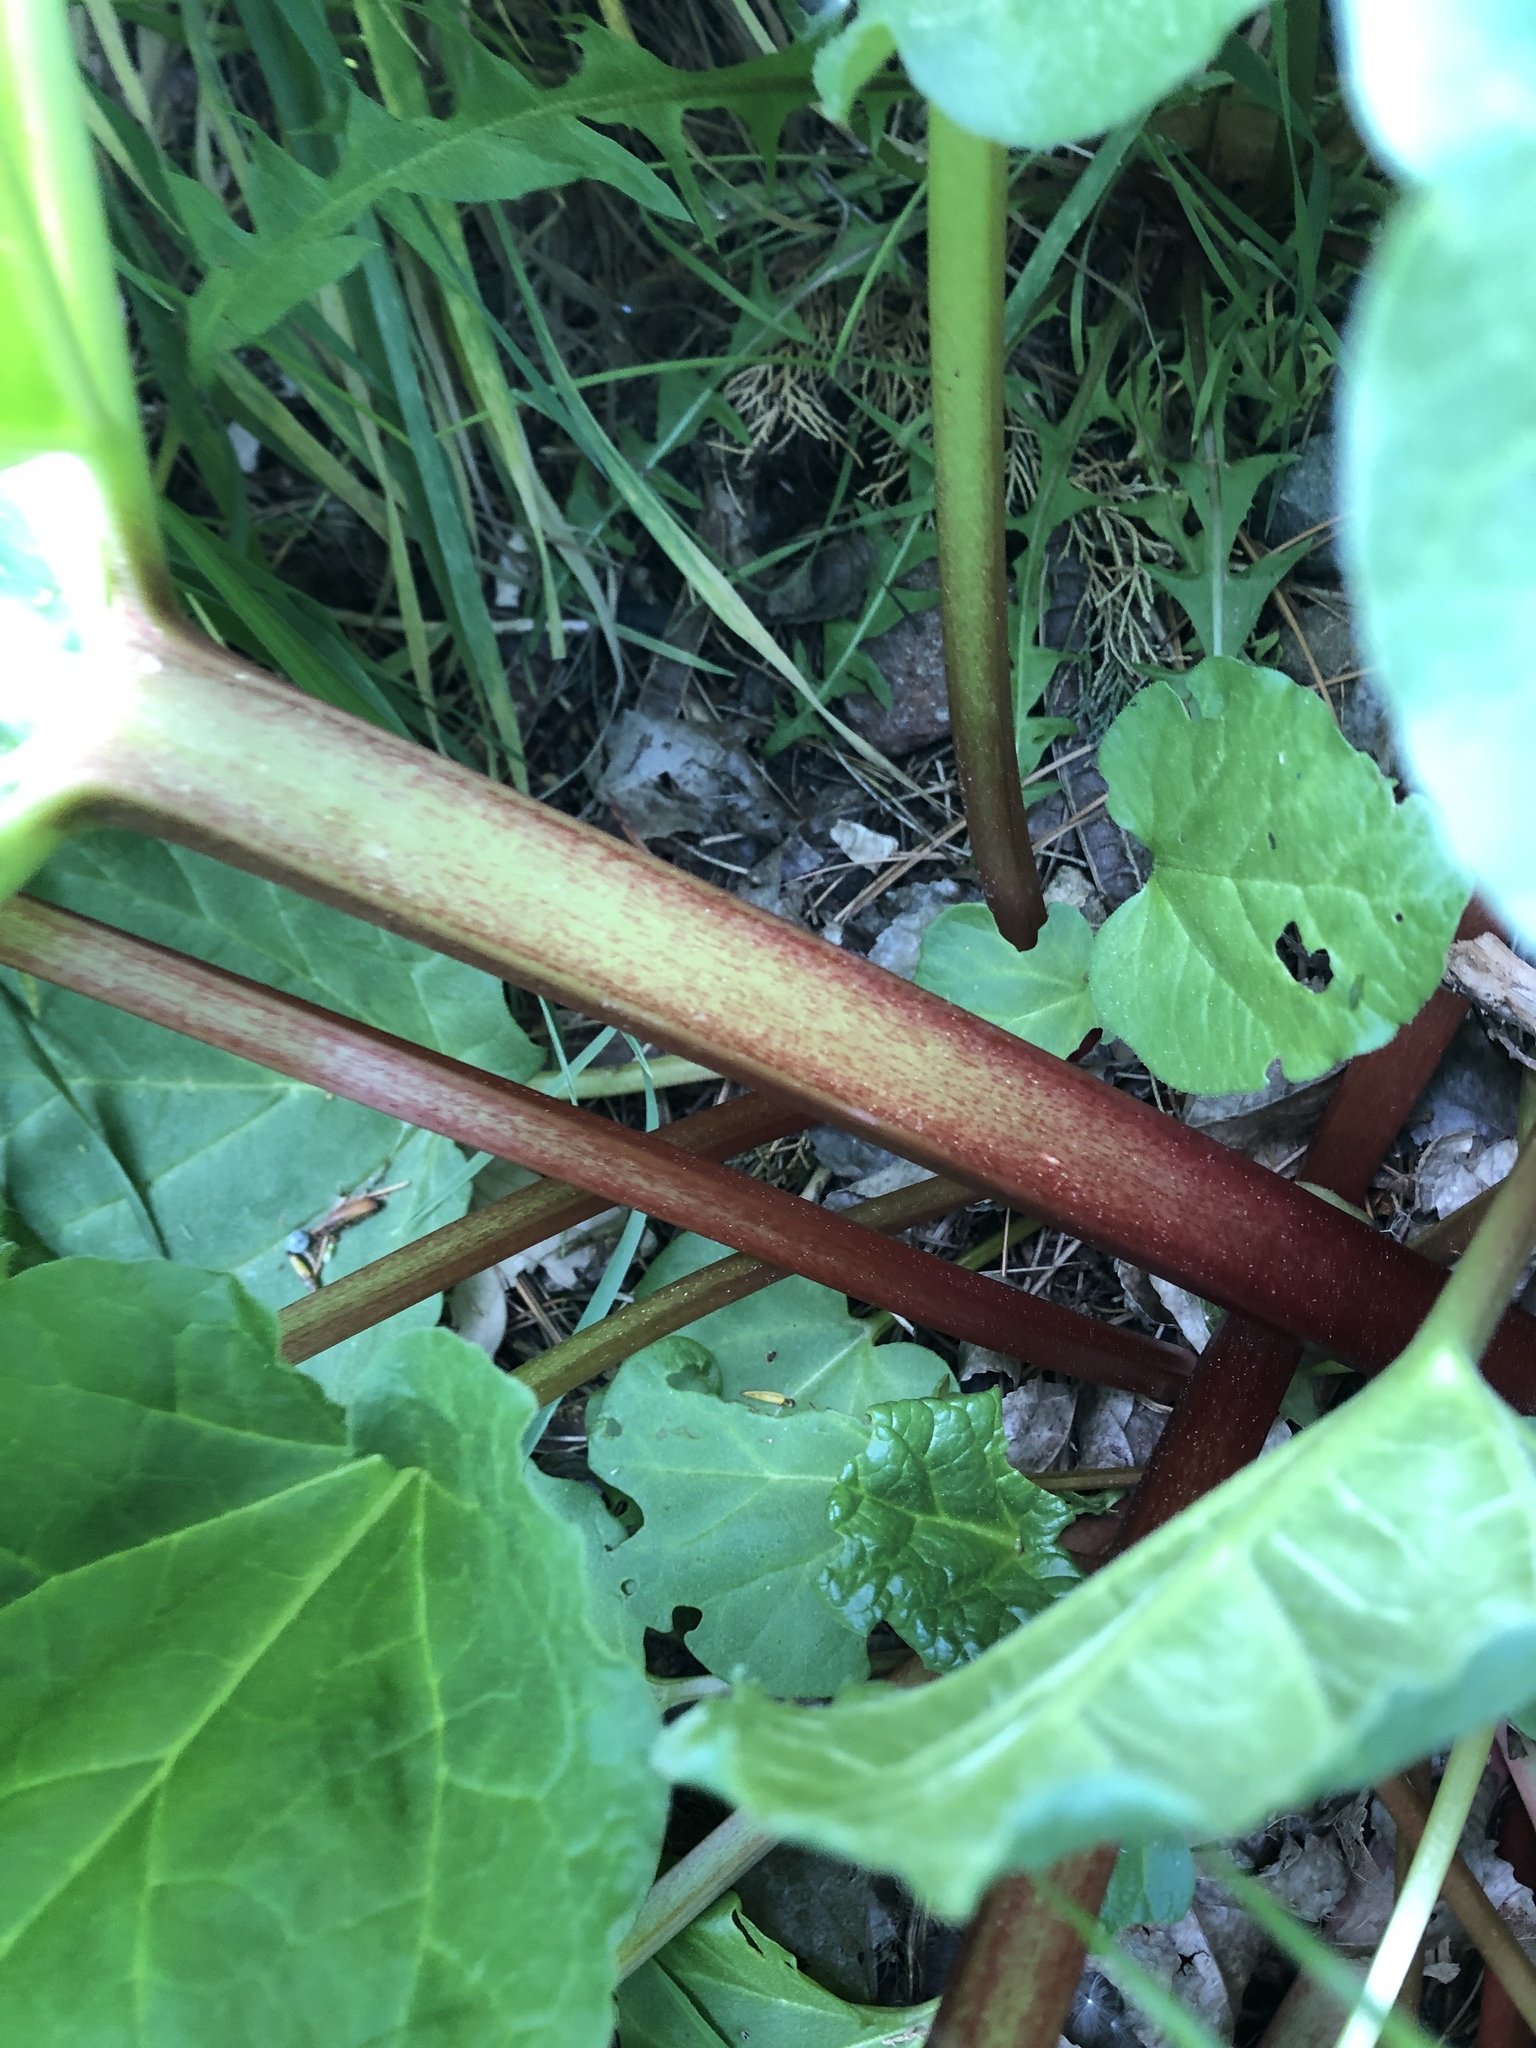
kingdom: Plantae
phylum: Tracheophyta
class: Magnoliopsida
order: Caryophyllales
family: Polygonaceae
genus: Rheum
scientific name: Rheum rhabarbarum
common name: Garden rhubarb
